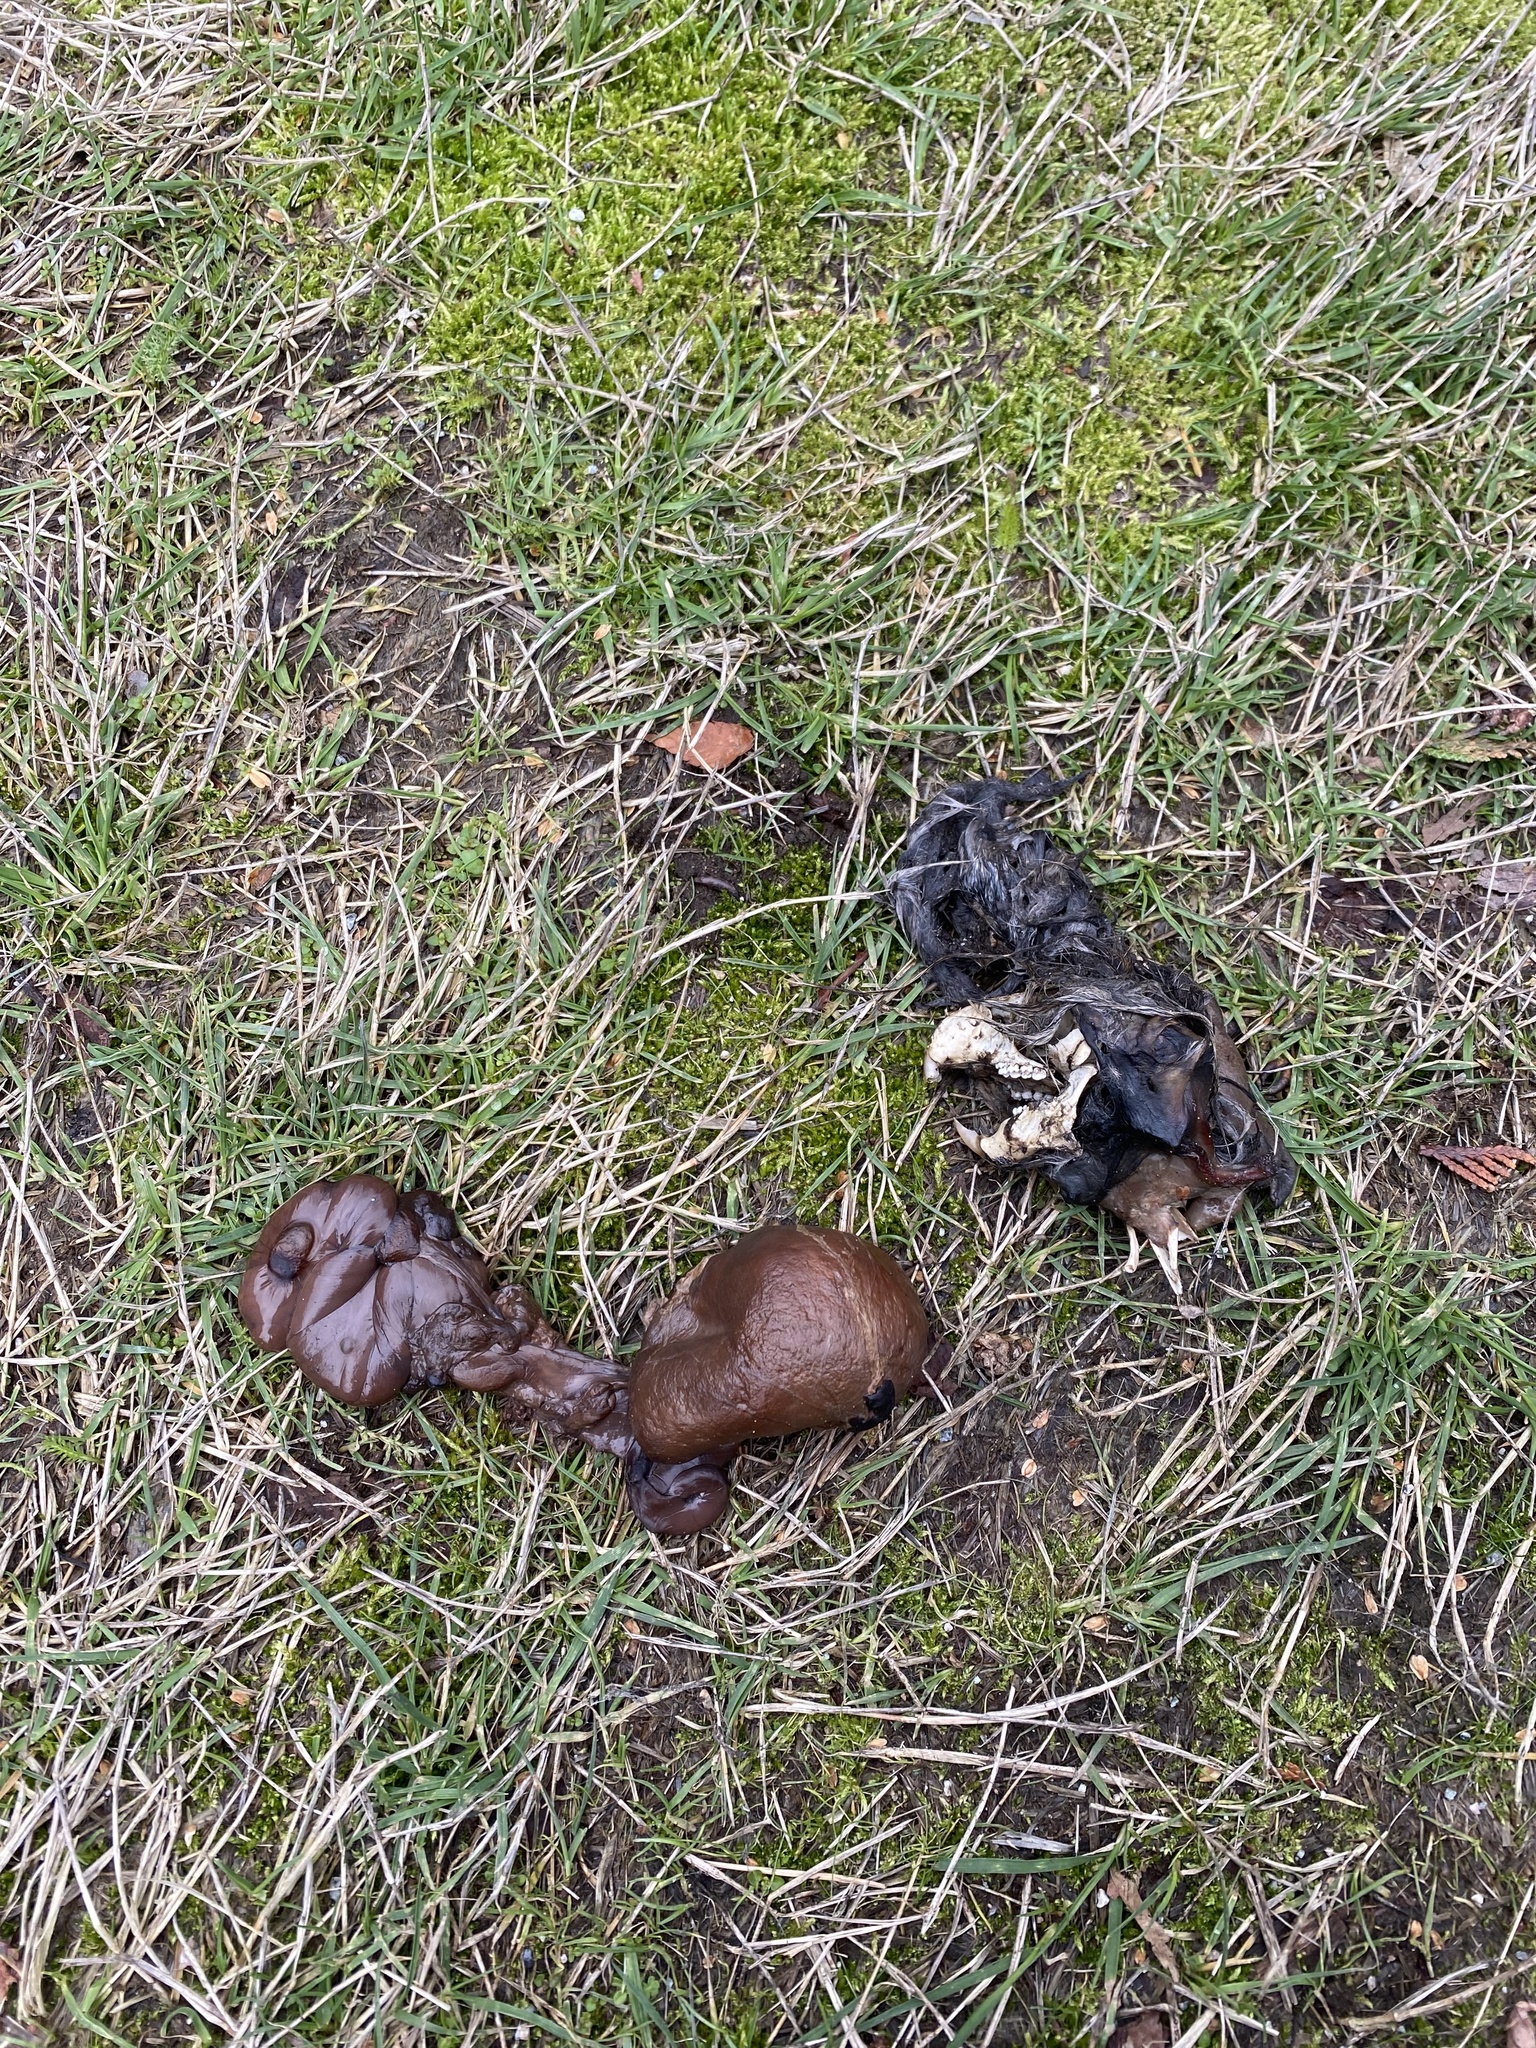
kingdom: Animalia
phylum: Chordata
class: Mammalia
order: Rodentia
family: Sciuridae
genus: Sciurus
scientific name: Sciurus carolinensis
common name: Eastern gray squirrel
